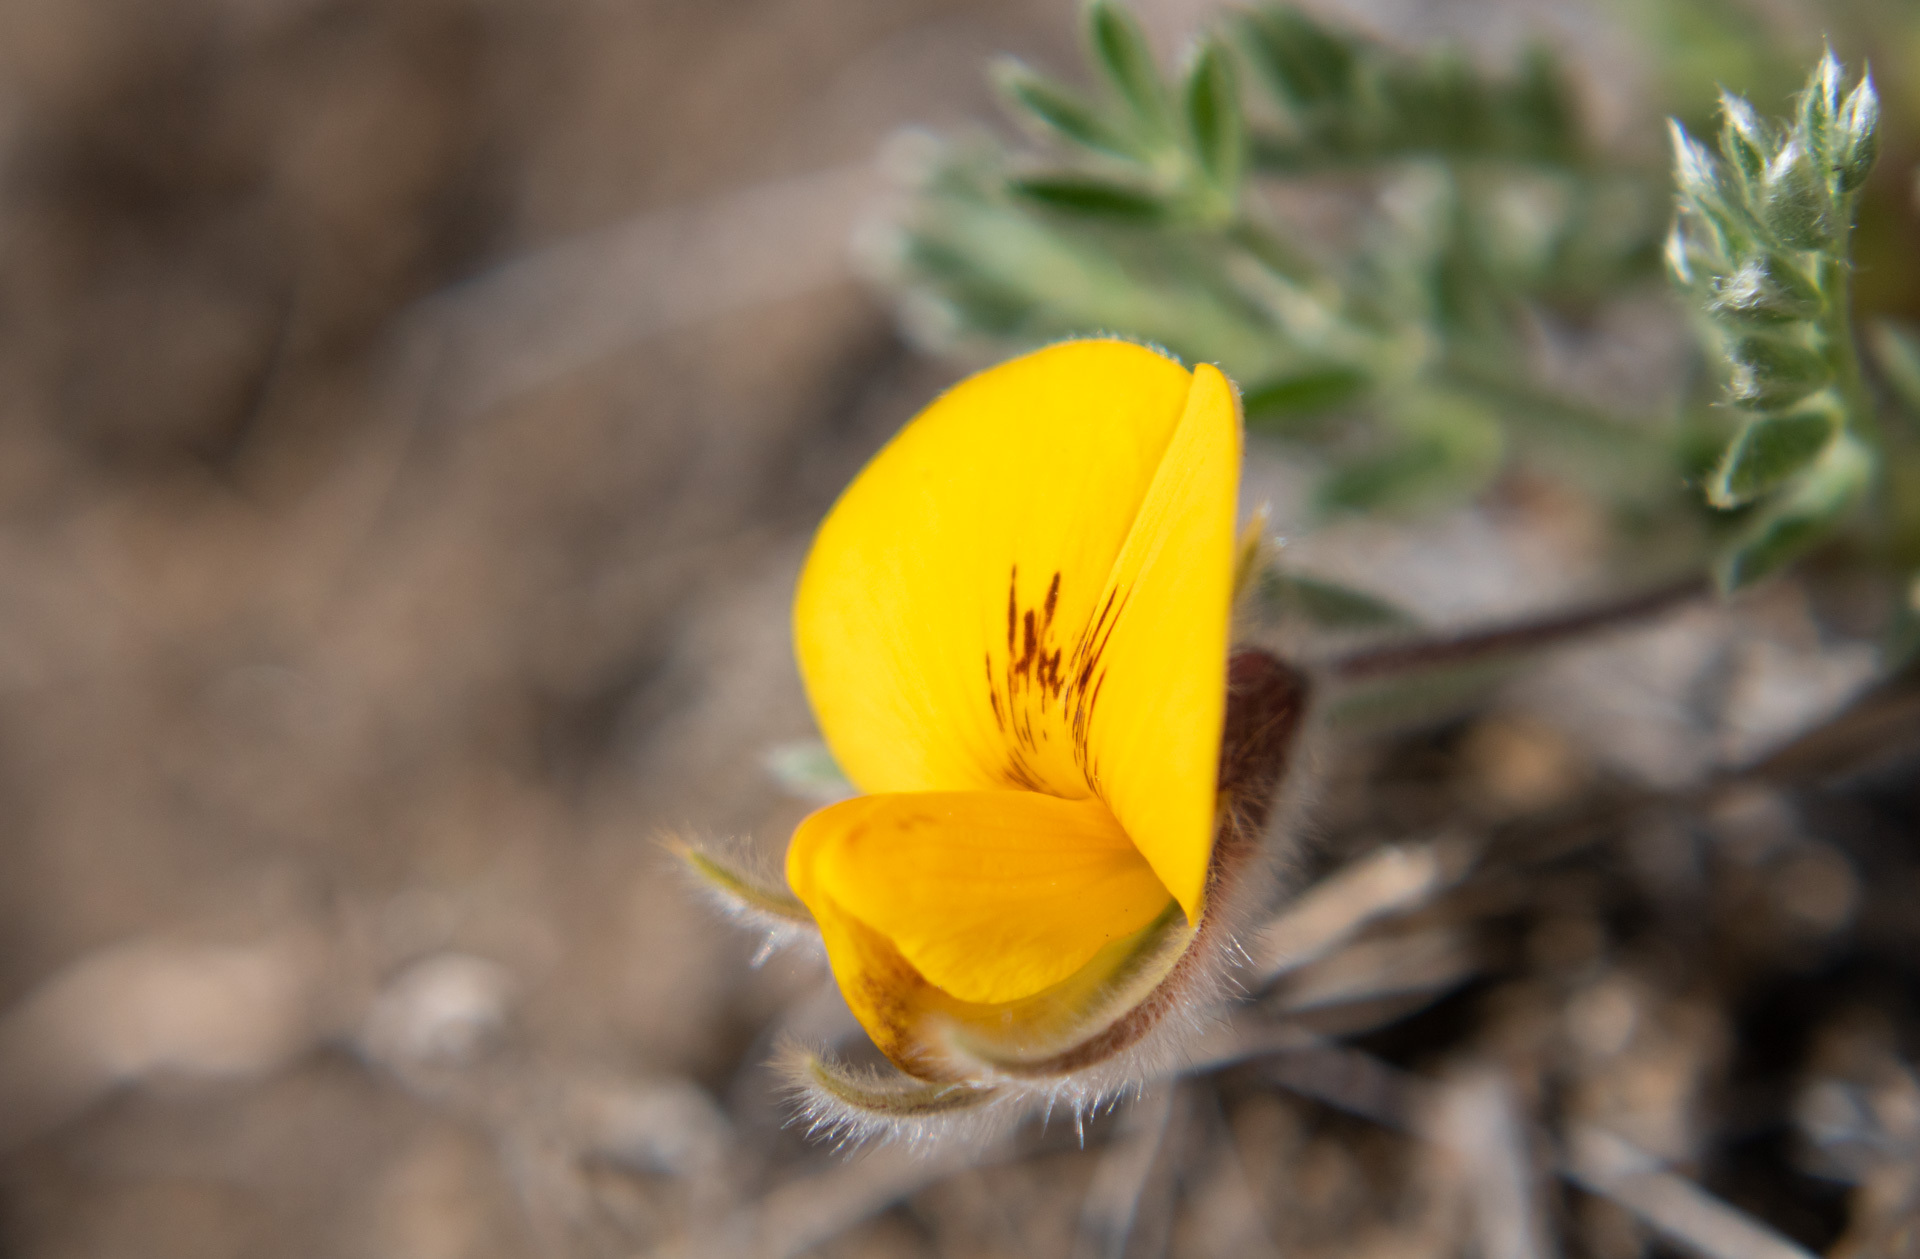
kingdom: Plantae
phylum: Tracheophyta
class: Magnoliopsida
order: Fabales
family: Fabaceae
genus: Adesmia
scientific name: Adesmia villosa
